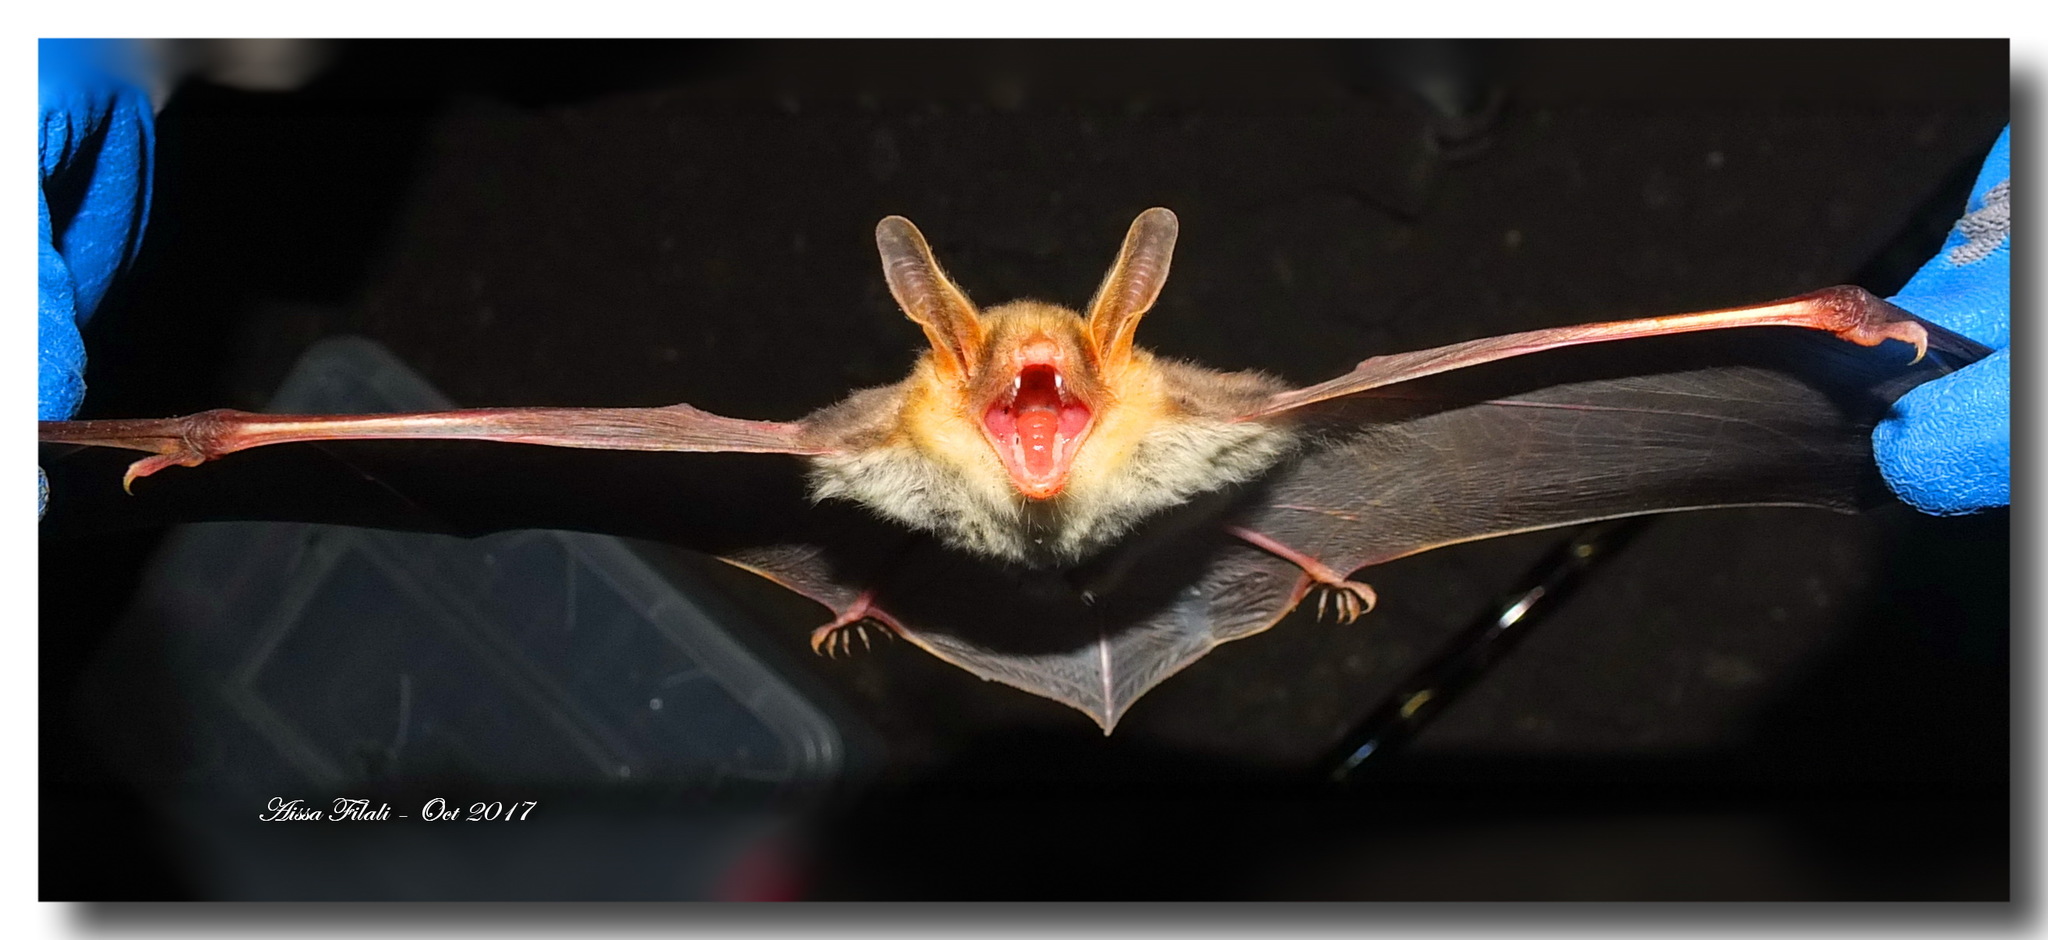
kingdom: Animalia
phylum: Chordata
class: Mammalia
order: Chiroptera
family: Vespertilionidae
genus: Myotis
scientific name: Myotis punicus
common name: Maghrebian myotis
